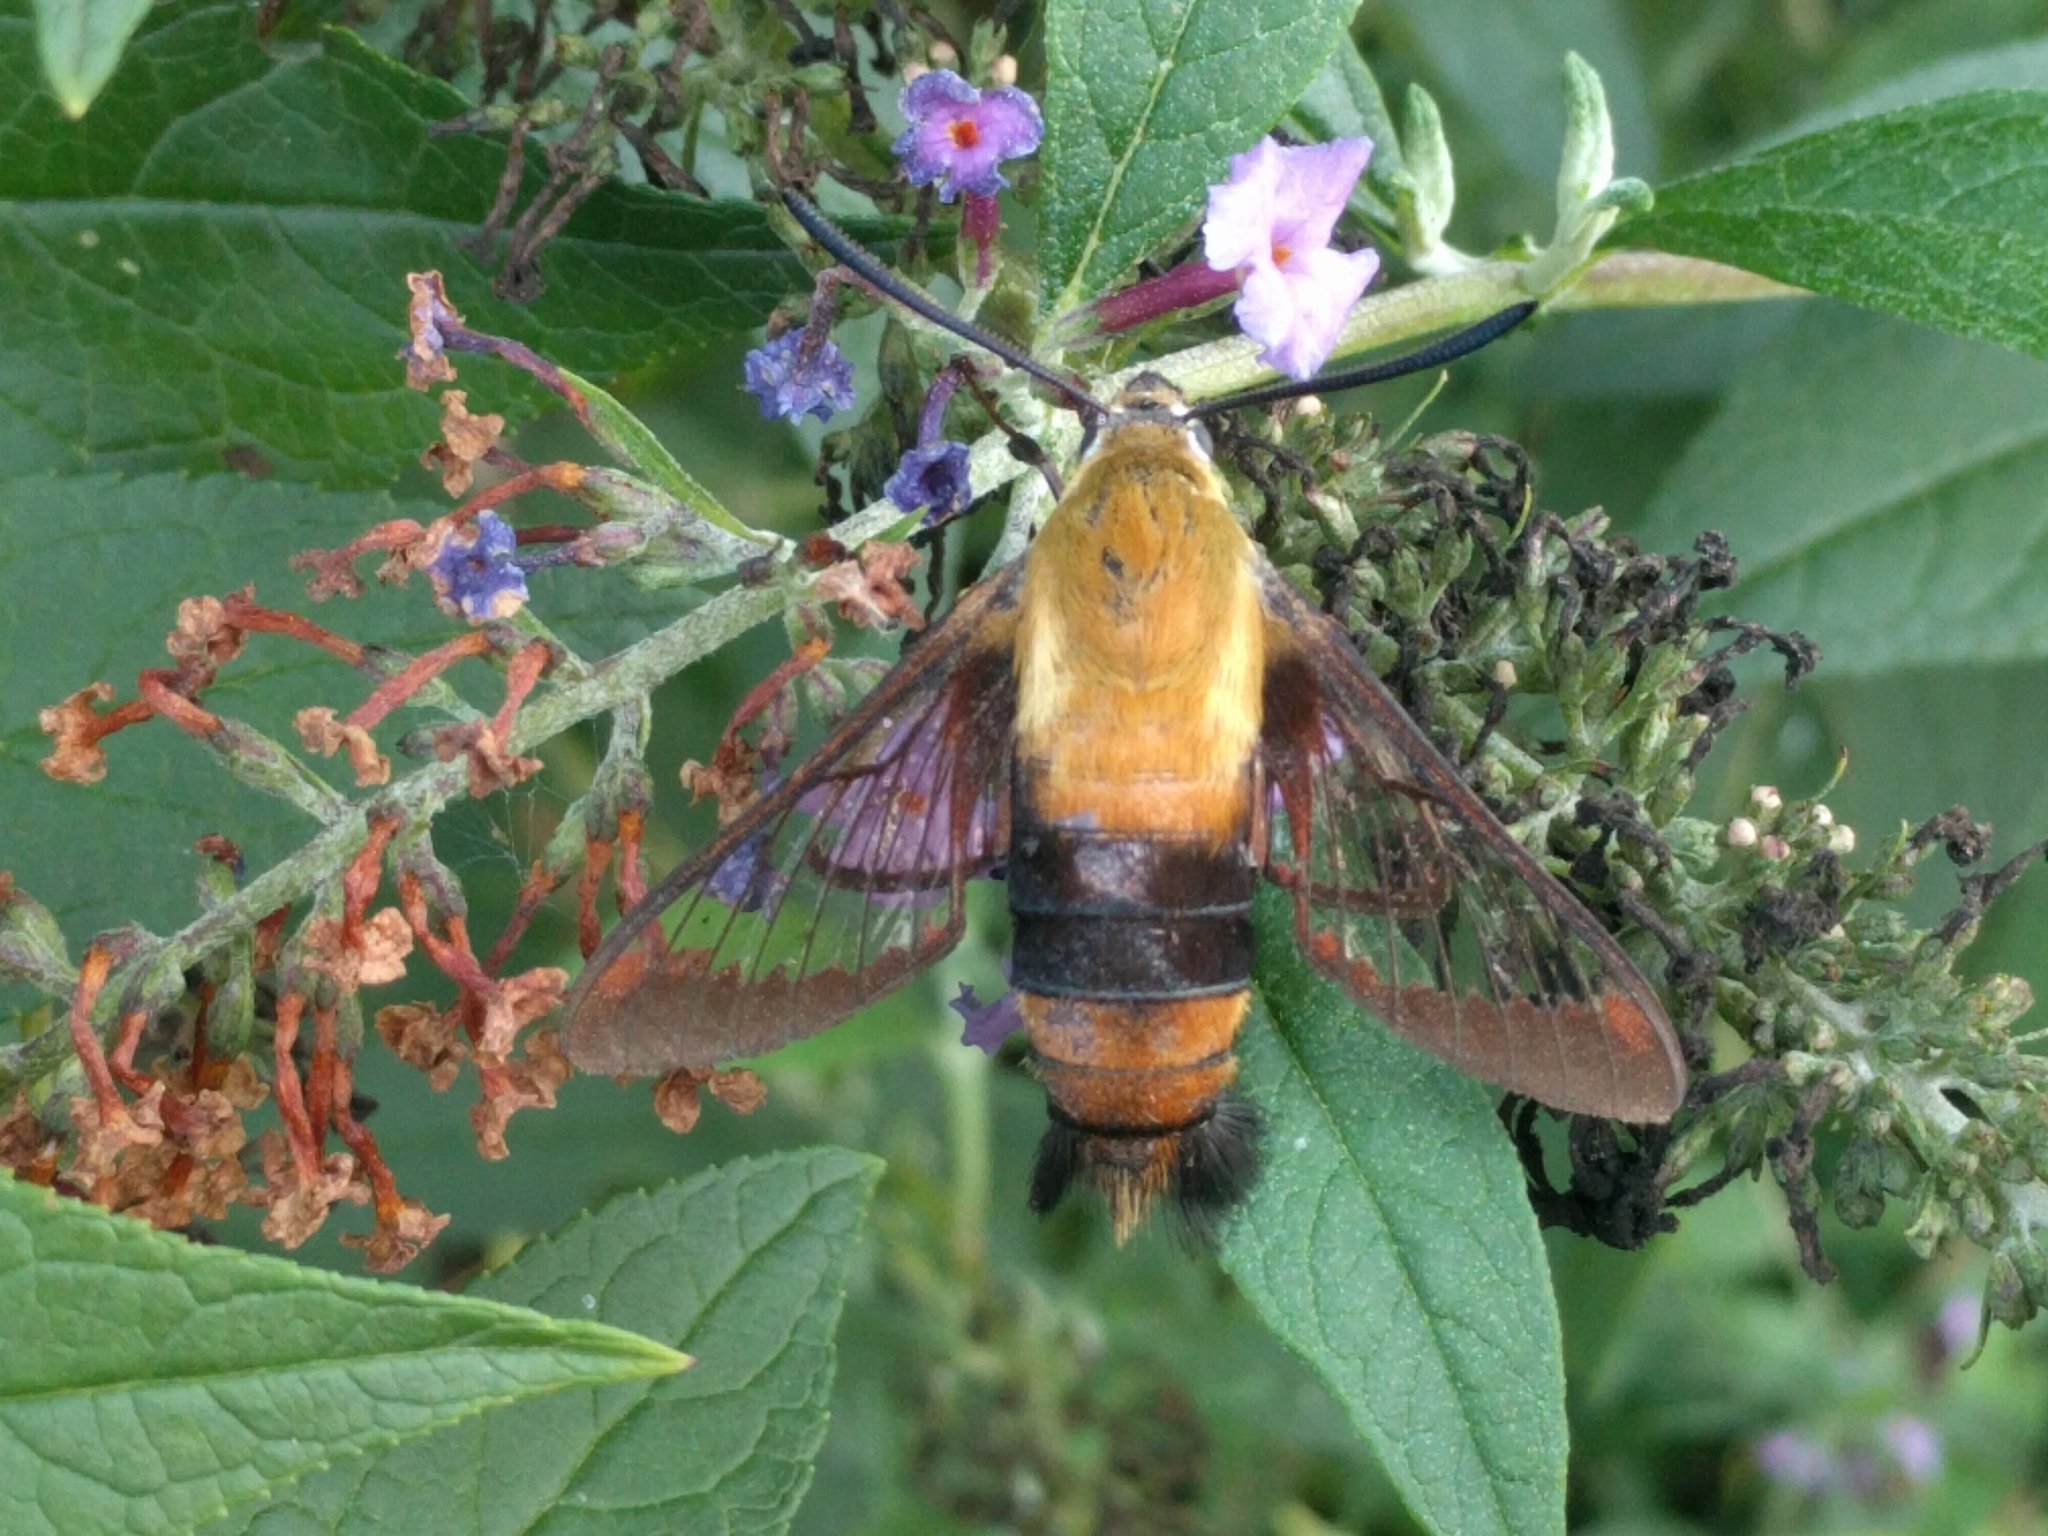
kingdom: Animalia
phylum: Arthropoda
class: Insecta
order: Lepidoptera
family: Sphingidae
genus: Hemaris
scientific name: Hemaris diffinis
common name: Bumblebee moth
